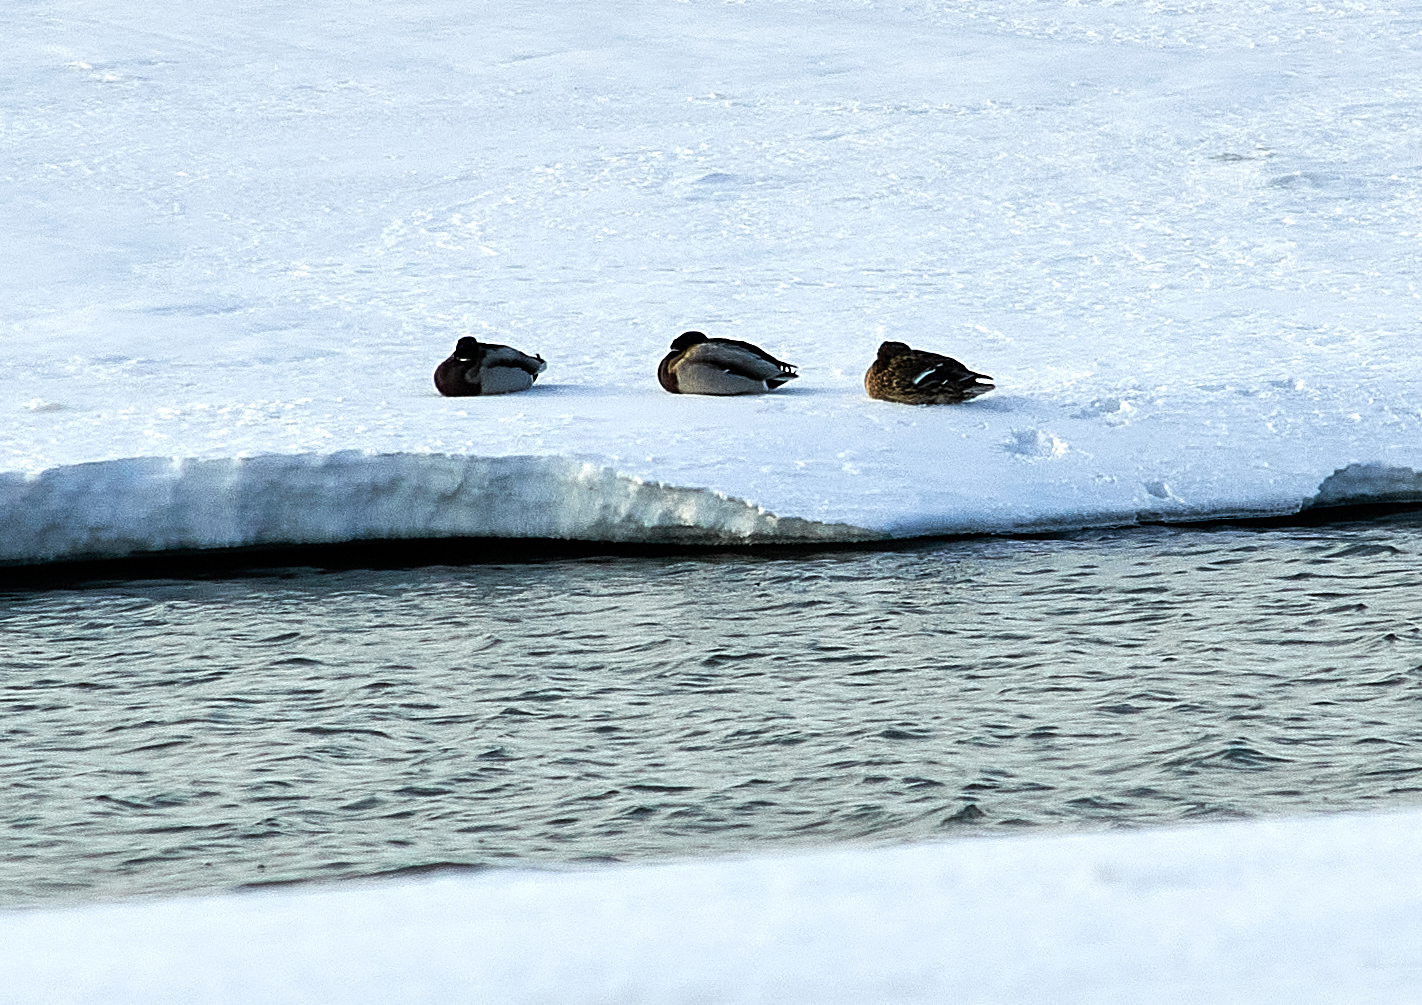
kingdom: Animalia
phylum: Chordata
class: Aves
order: Anseriformes
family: Anatidae
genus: Anas
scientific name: Anas platyrhynchos
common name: Mallard
